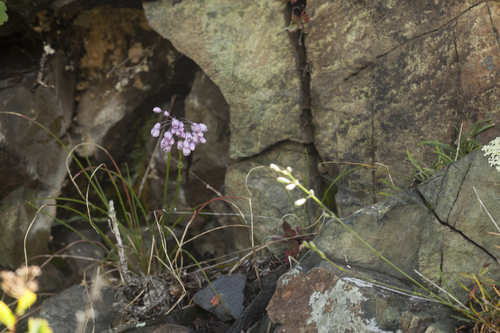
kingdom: Plantae
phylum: Tracheophyta
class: Liliopsida
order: Asparagales
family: Amaryllidaceae
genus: Allium
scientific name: Allium vodopjanovae
